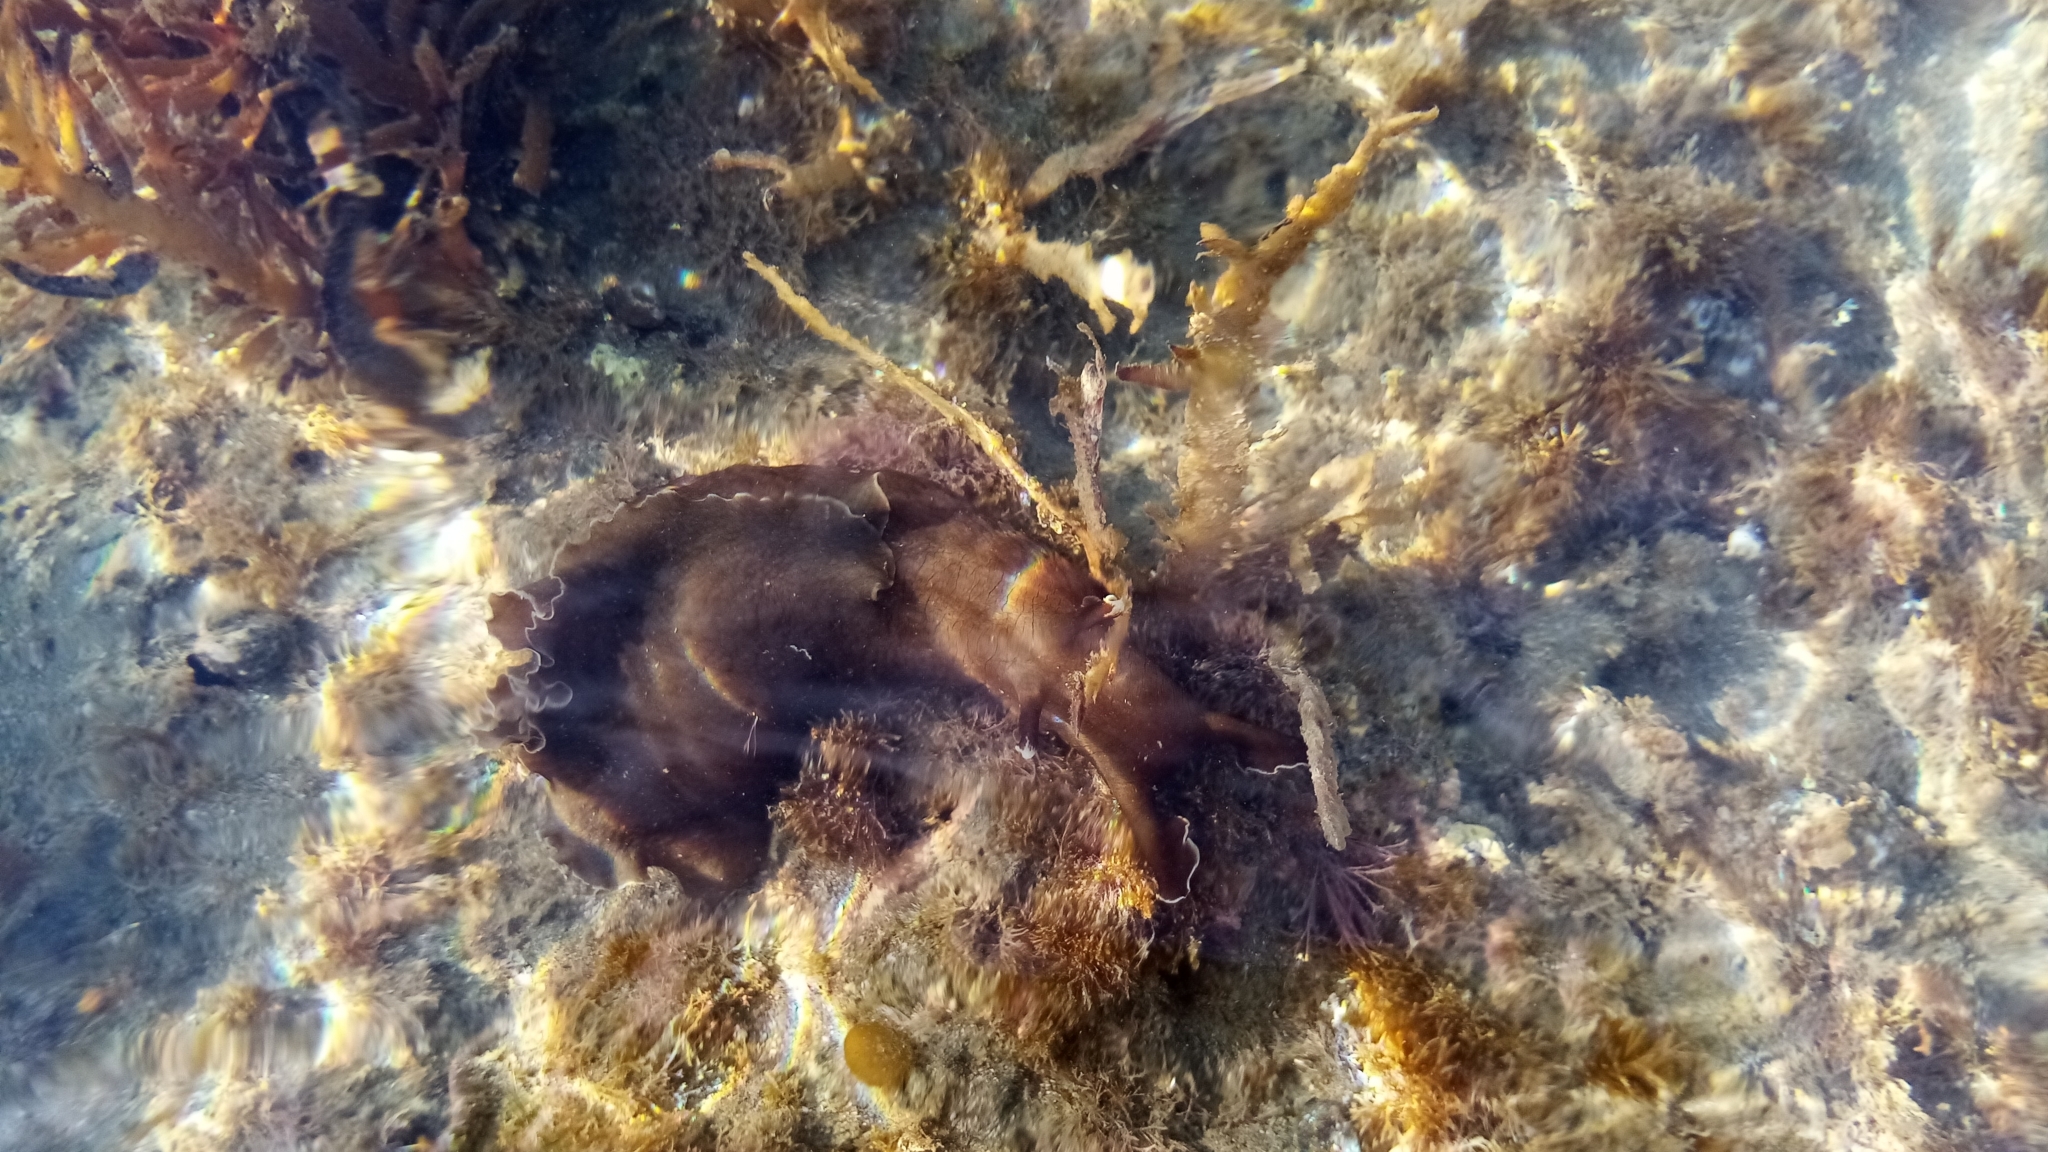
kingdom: Animalia
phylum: Mollusca
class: Gastropoda
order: Aplysiida
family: Aplysiidae
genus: Aplysia
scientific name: Aplysia juliana
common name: Walking sea hare
